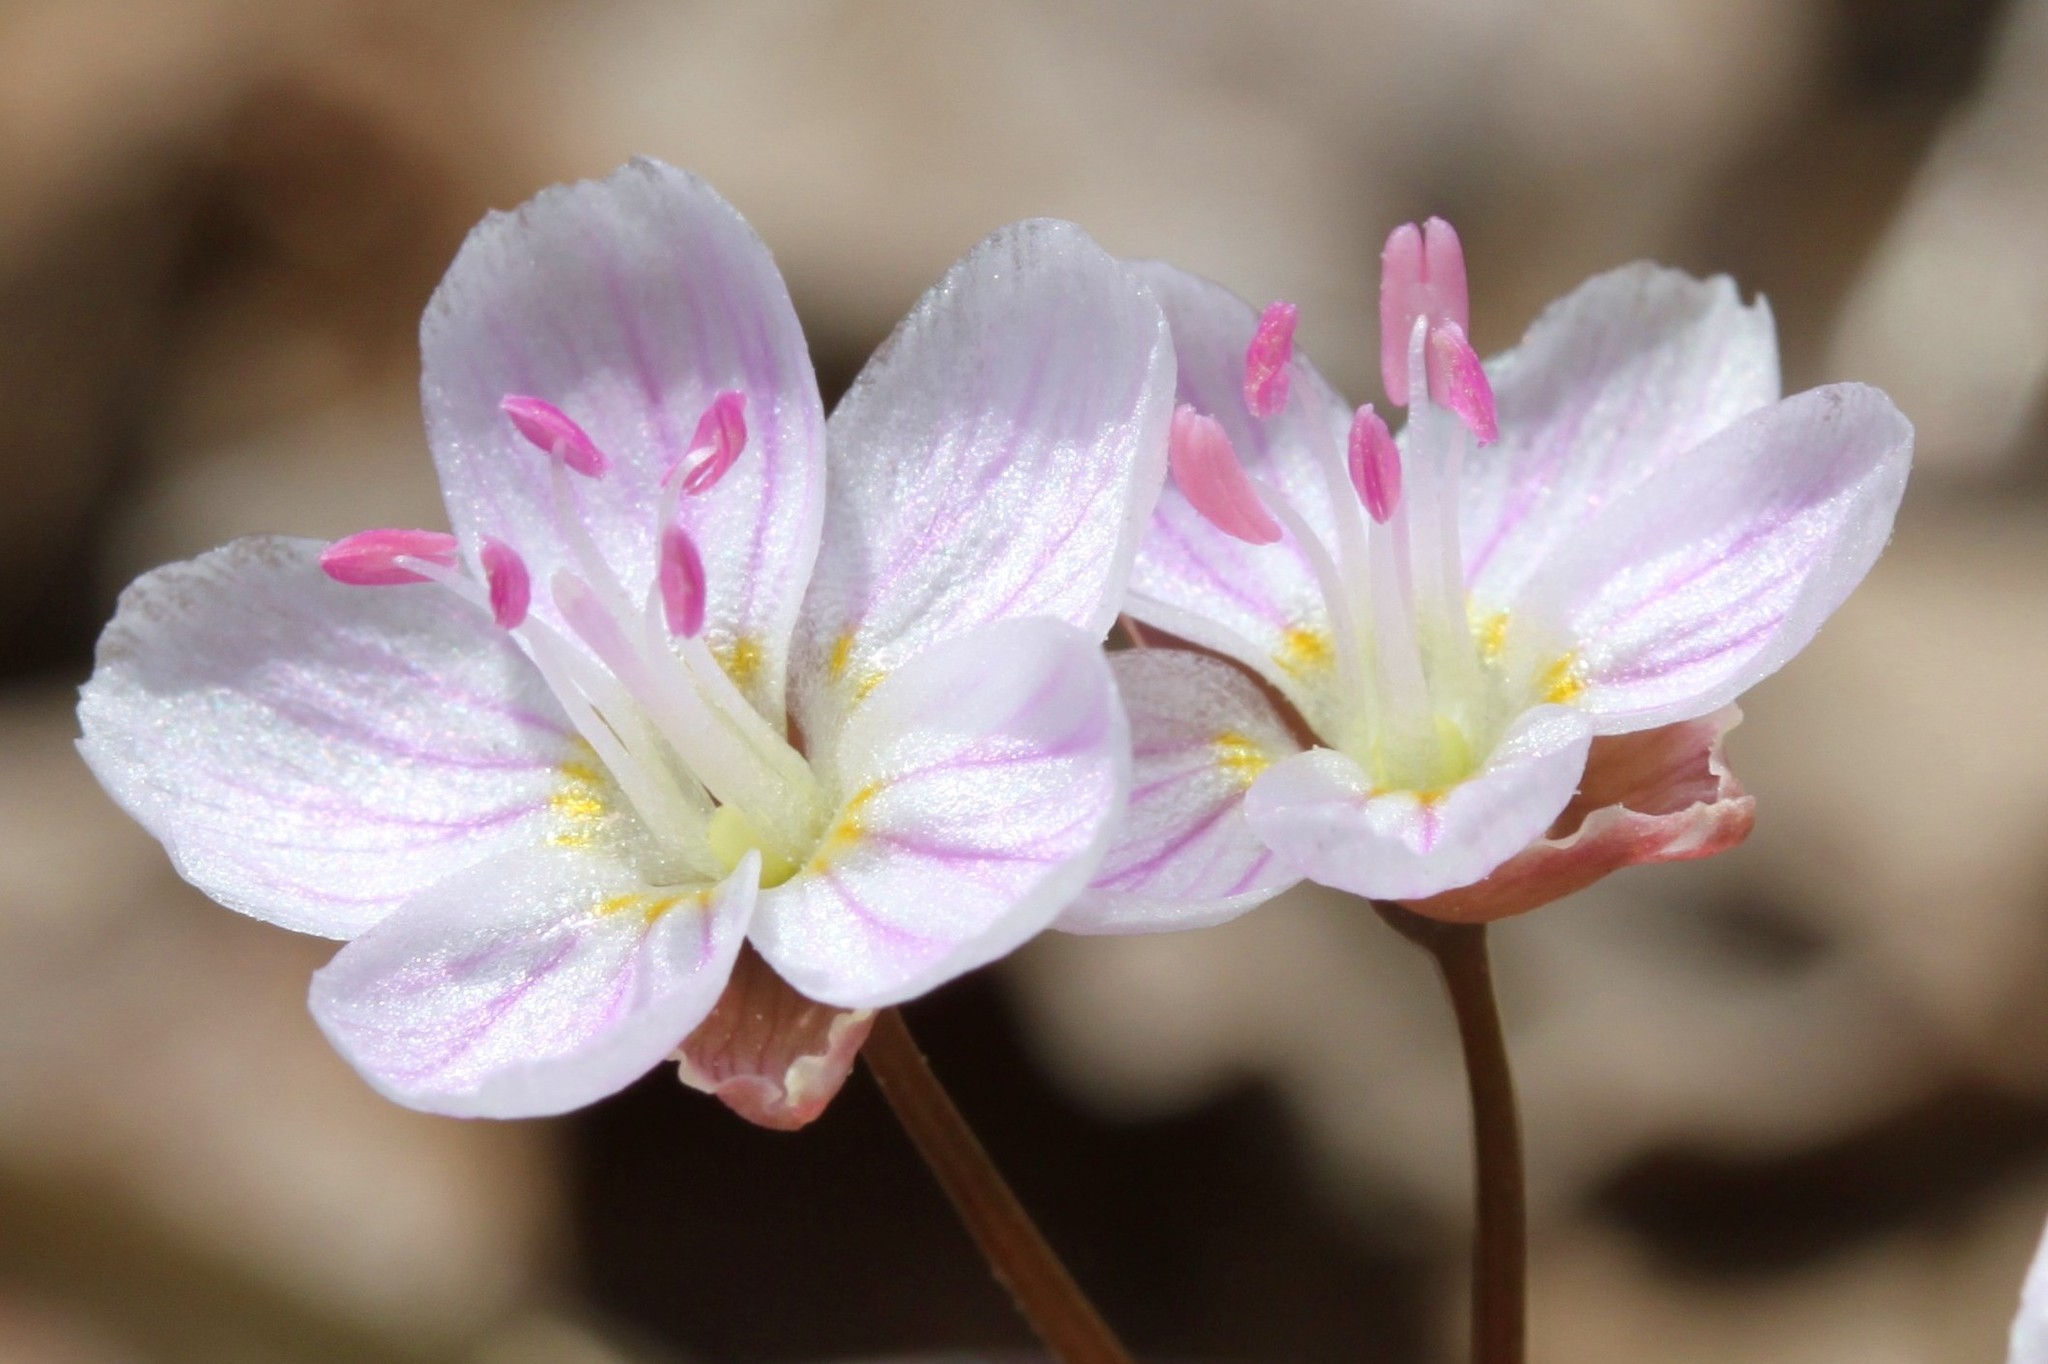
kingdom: Plantae
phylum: Tracheophyta
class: Magnoliopsida
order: Caryophyllales
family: Montiaceae
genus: Claytonia
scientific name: Claytonia virginica
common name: Virginia springbeauty
